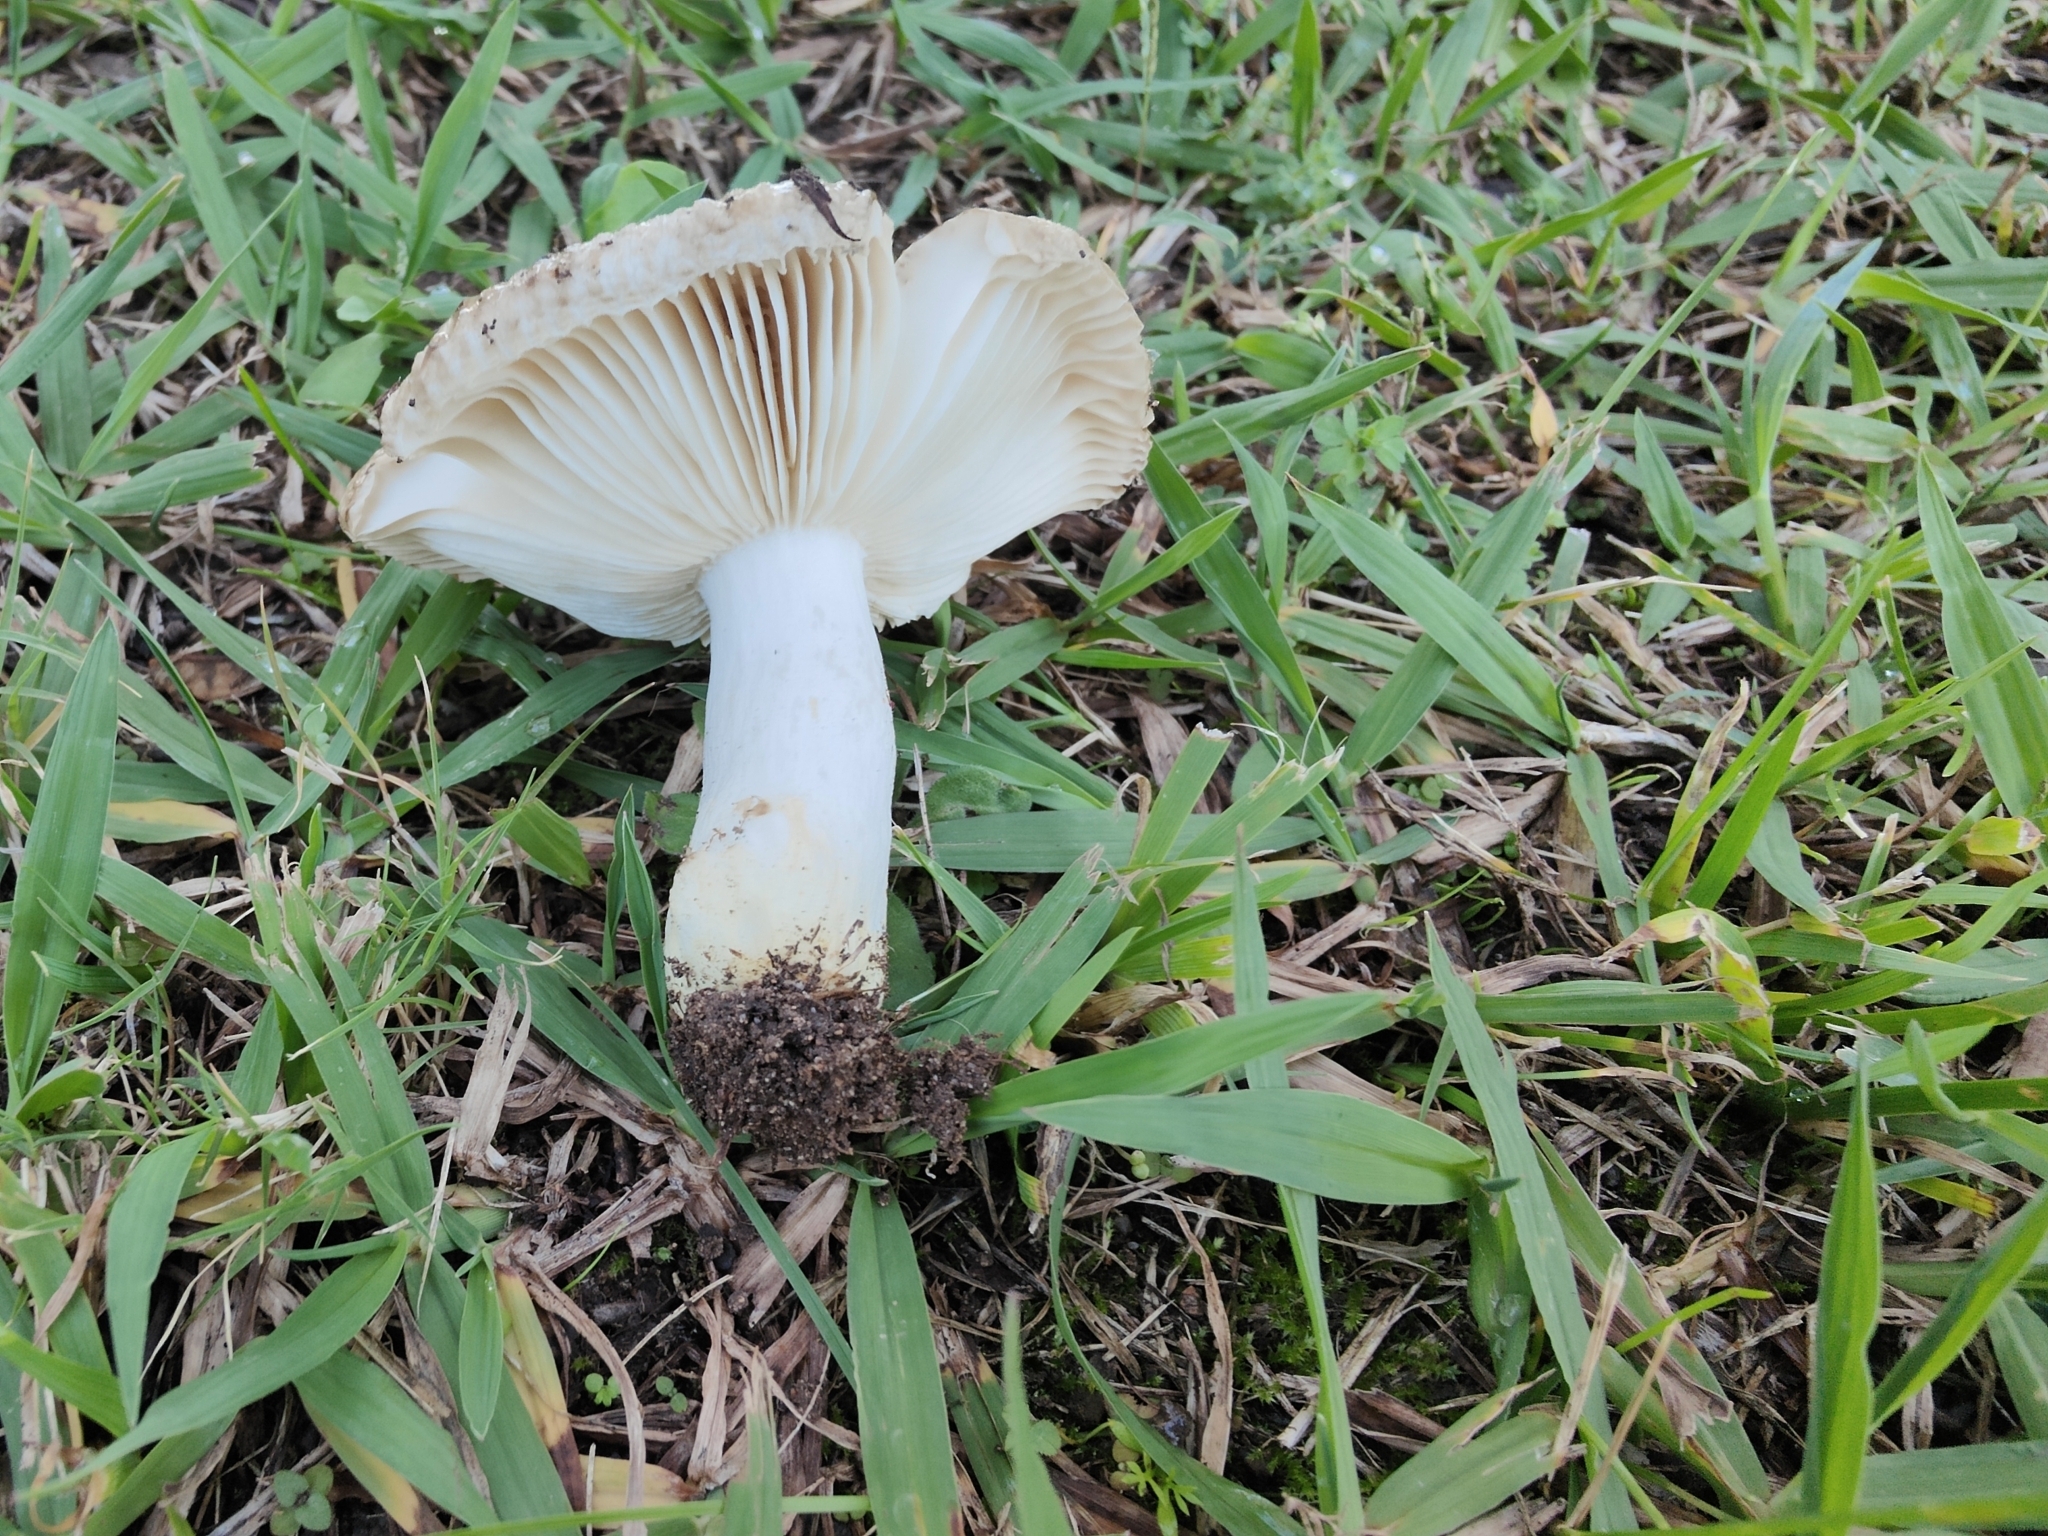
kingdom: Fungi
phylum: Basidiomycota
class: Agaricomycetes
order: Russulales
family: Russulaceae
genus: Russula
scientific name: Russula insignis
